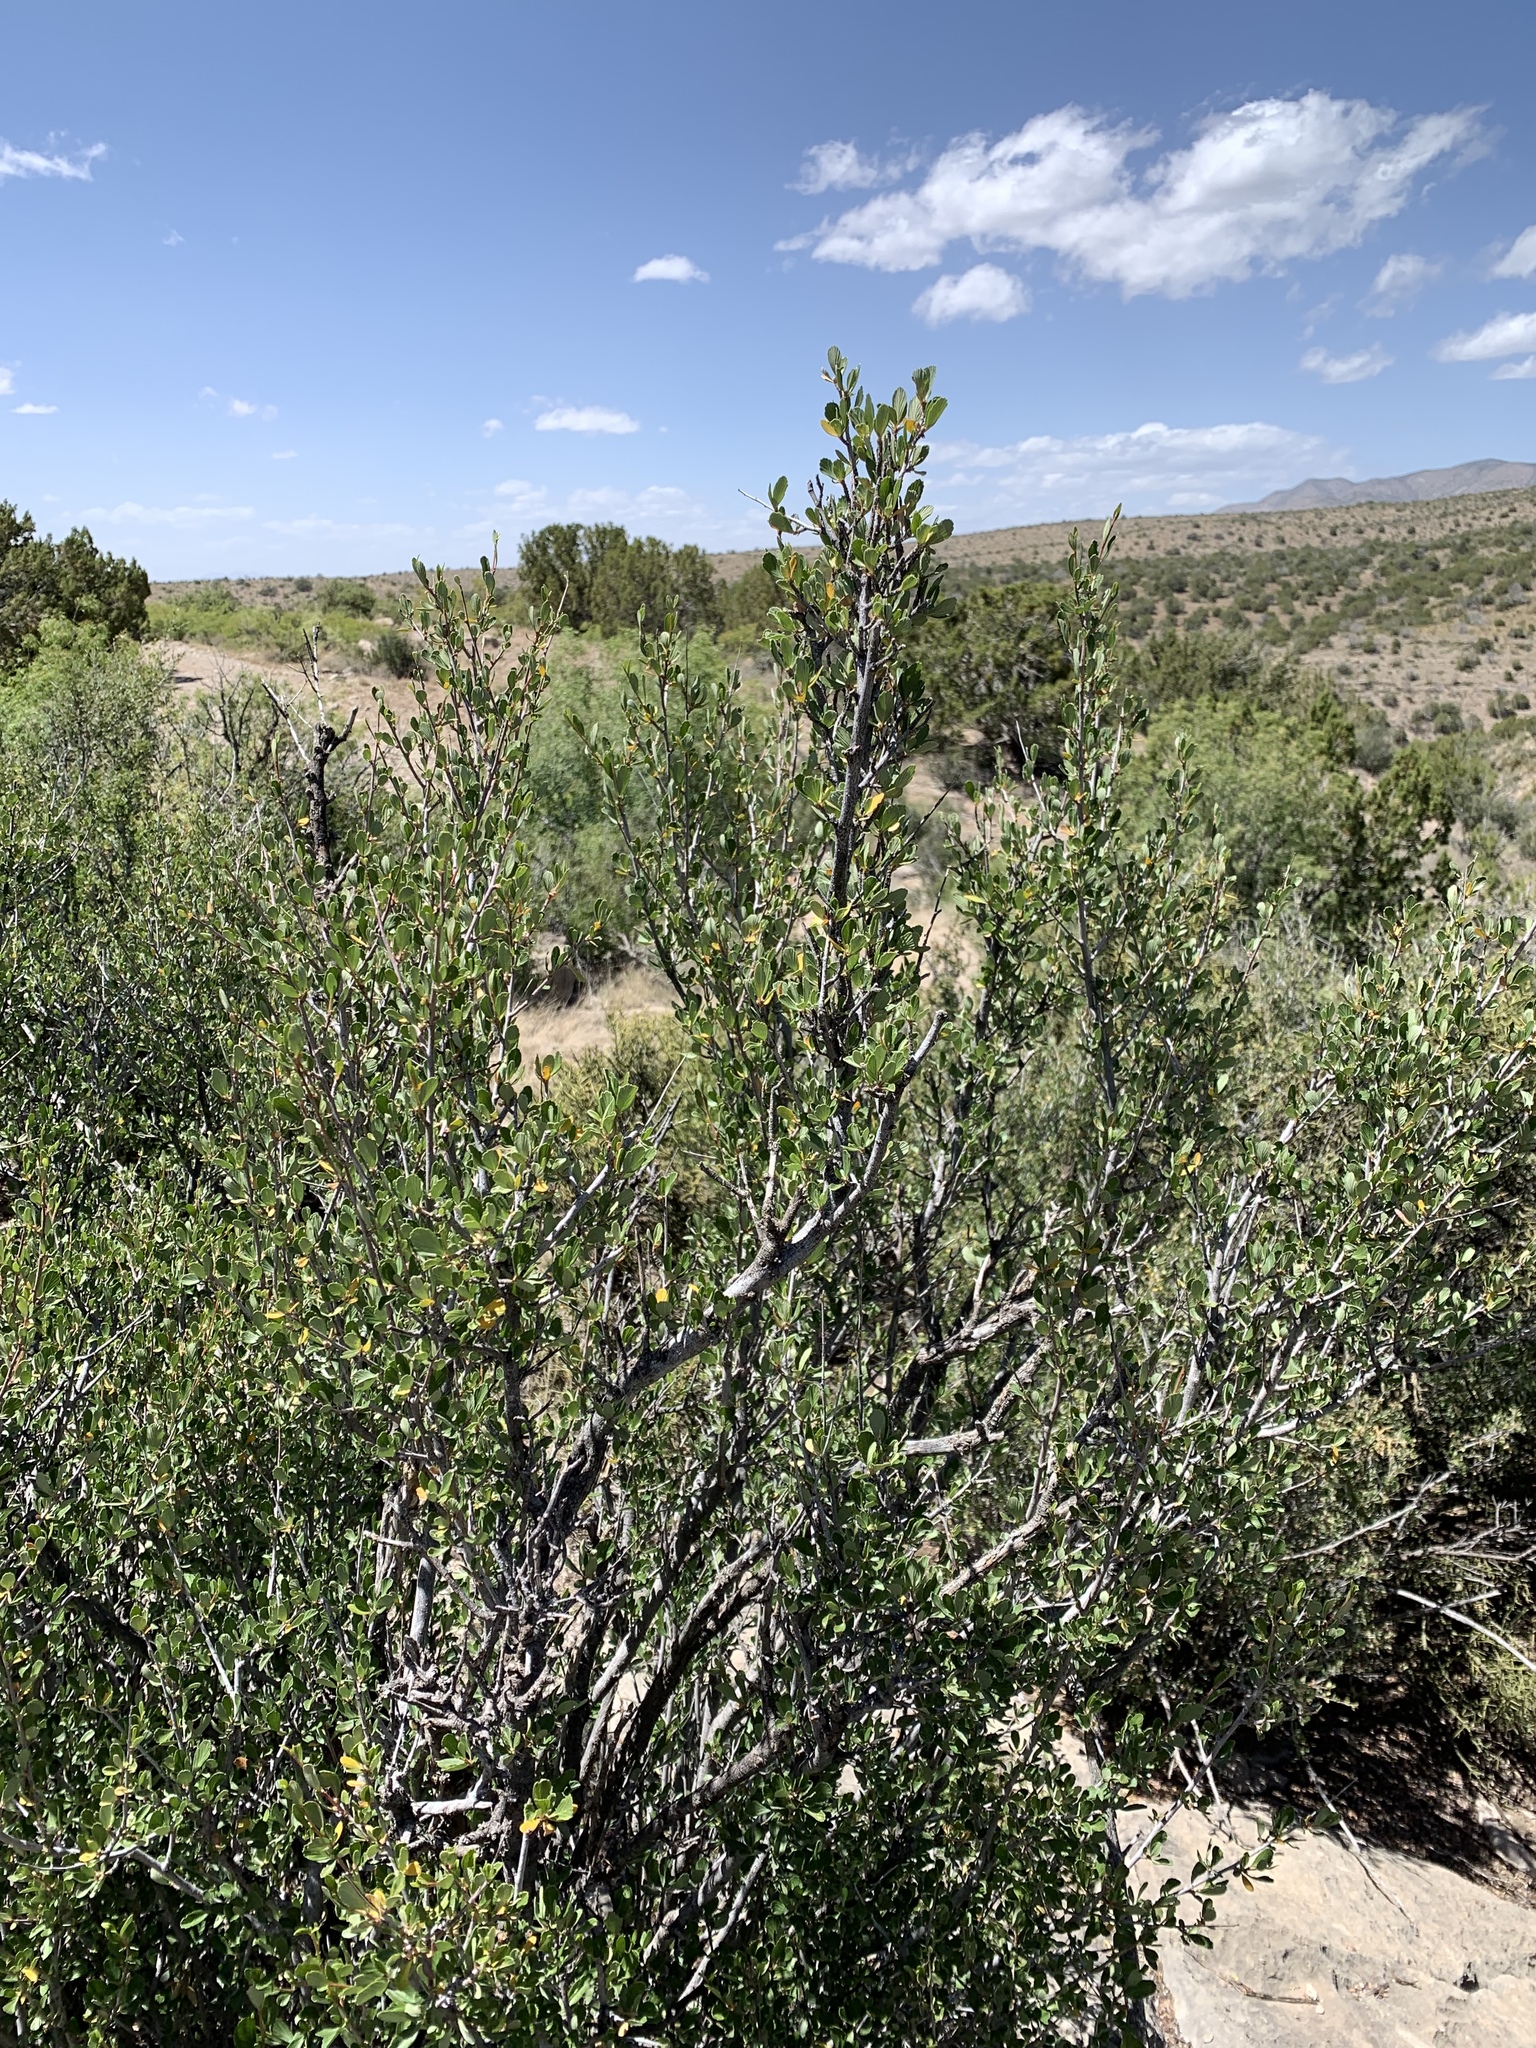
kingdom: Plantae
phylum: Tracheophyta
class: Magnoliopsida
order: Rosales
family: Rosaceae
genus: Cercocarpus
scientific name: Cercocarpus breviflorus
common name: Wright's mountain-mahogany
